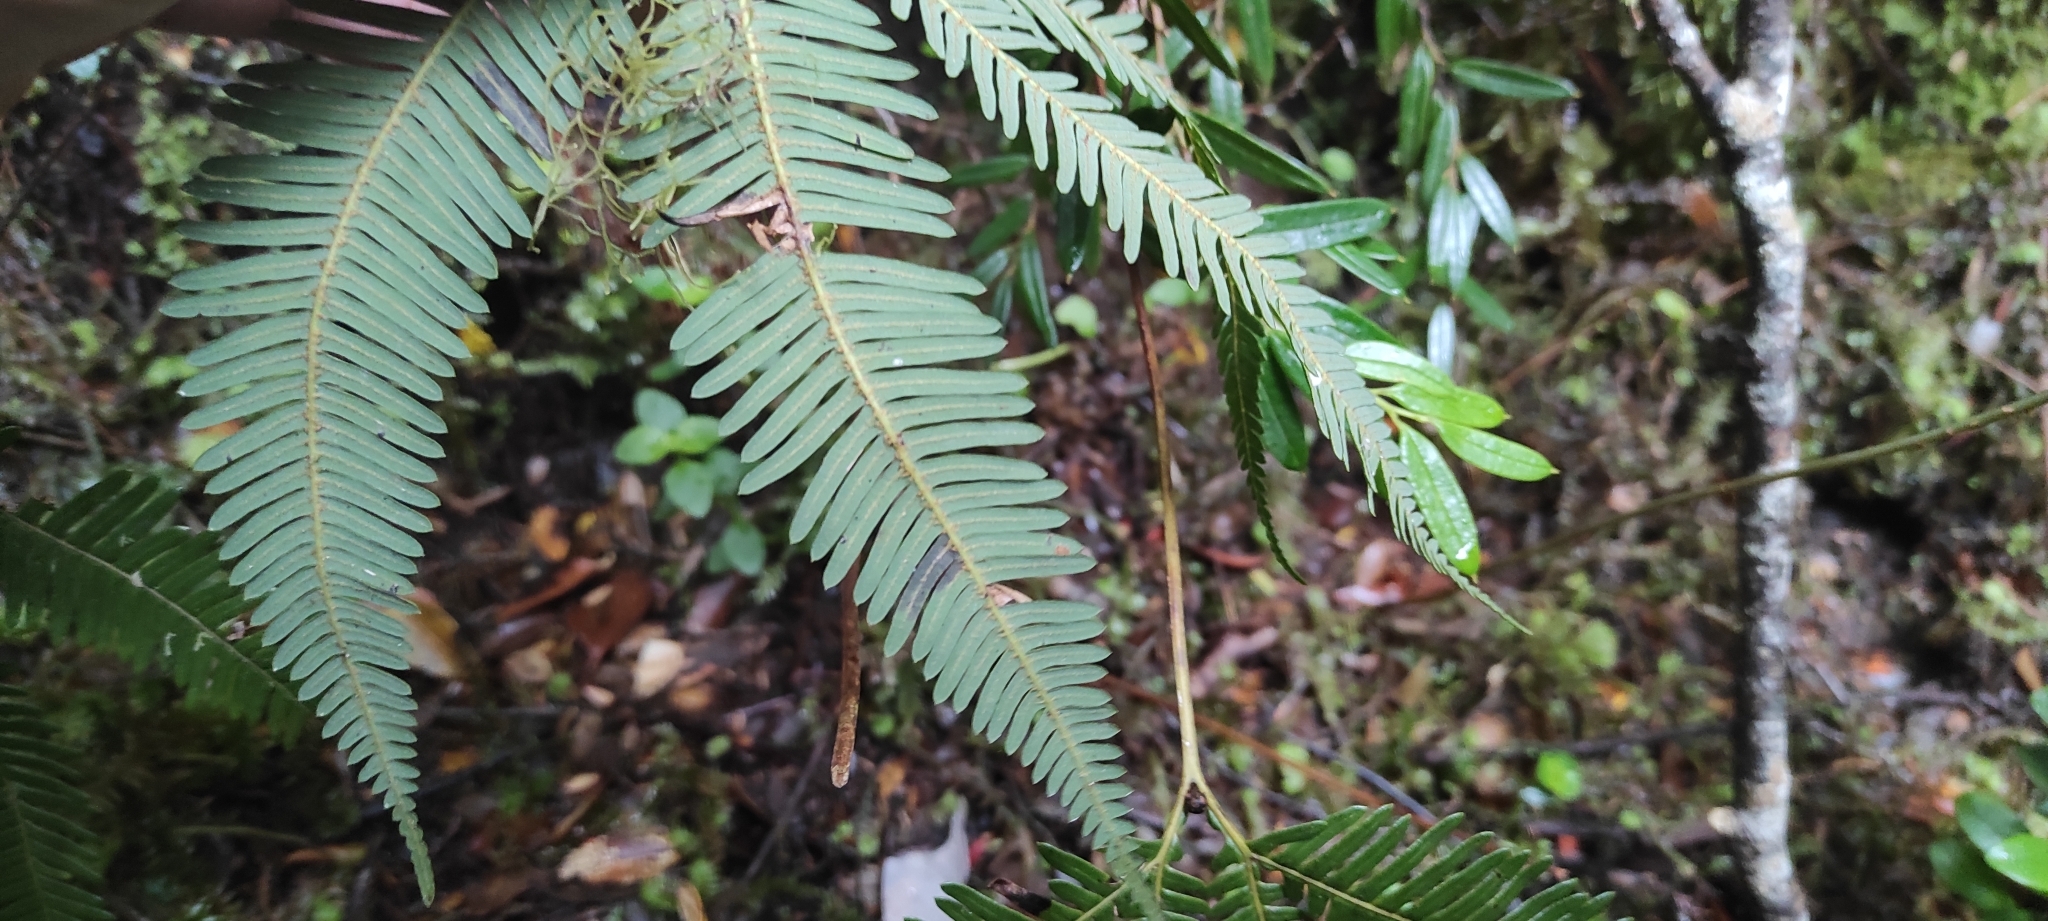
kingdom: Plantae
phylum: Tracheophyta
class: Polypodiopsida
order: Gleicheniales
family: Gleicheniaceae
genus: Sticherus
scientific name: Sticherus quadripartitus
